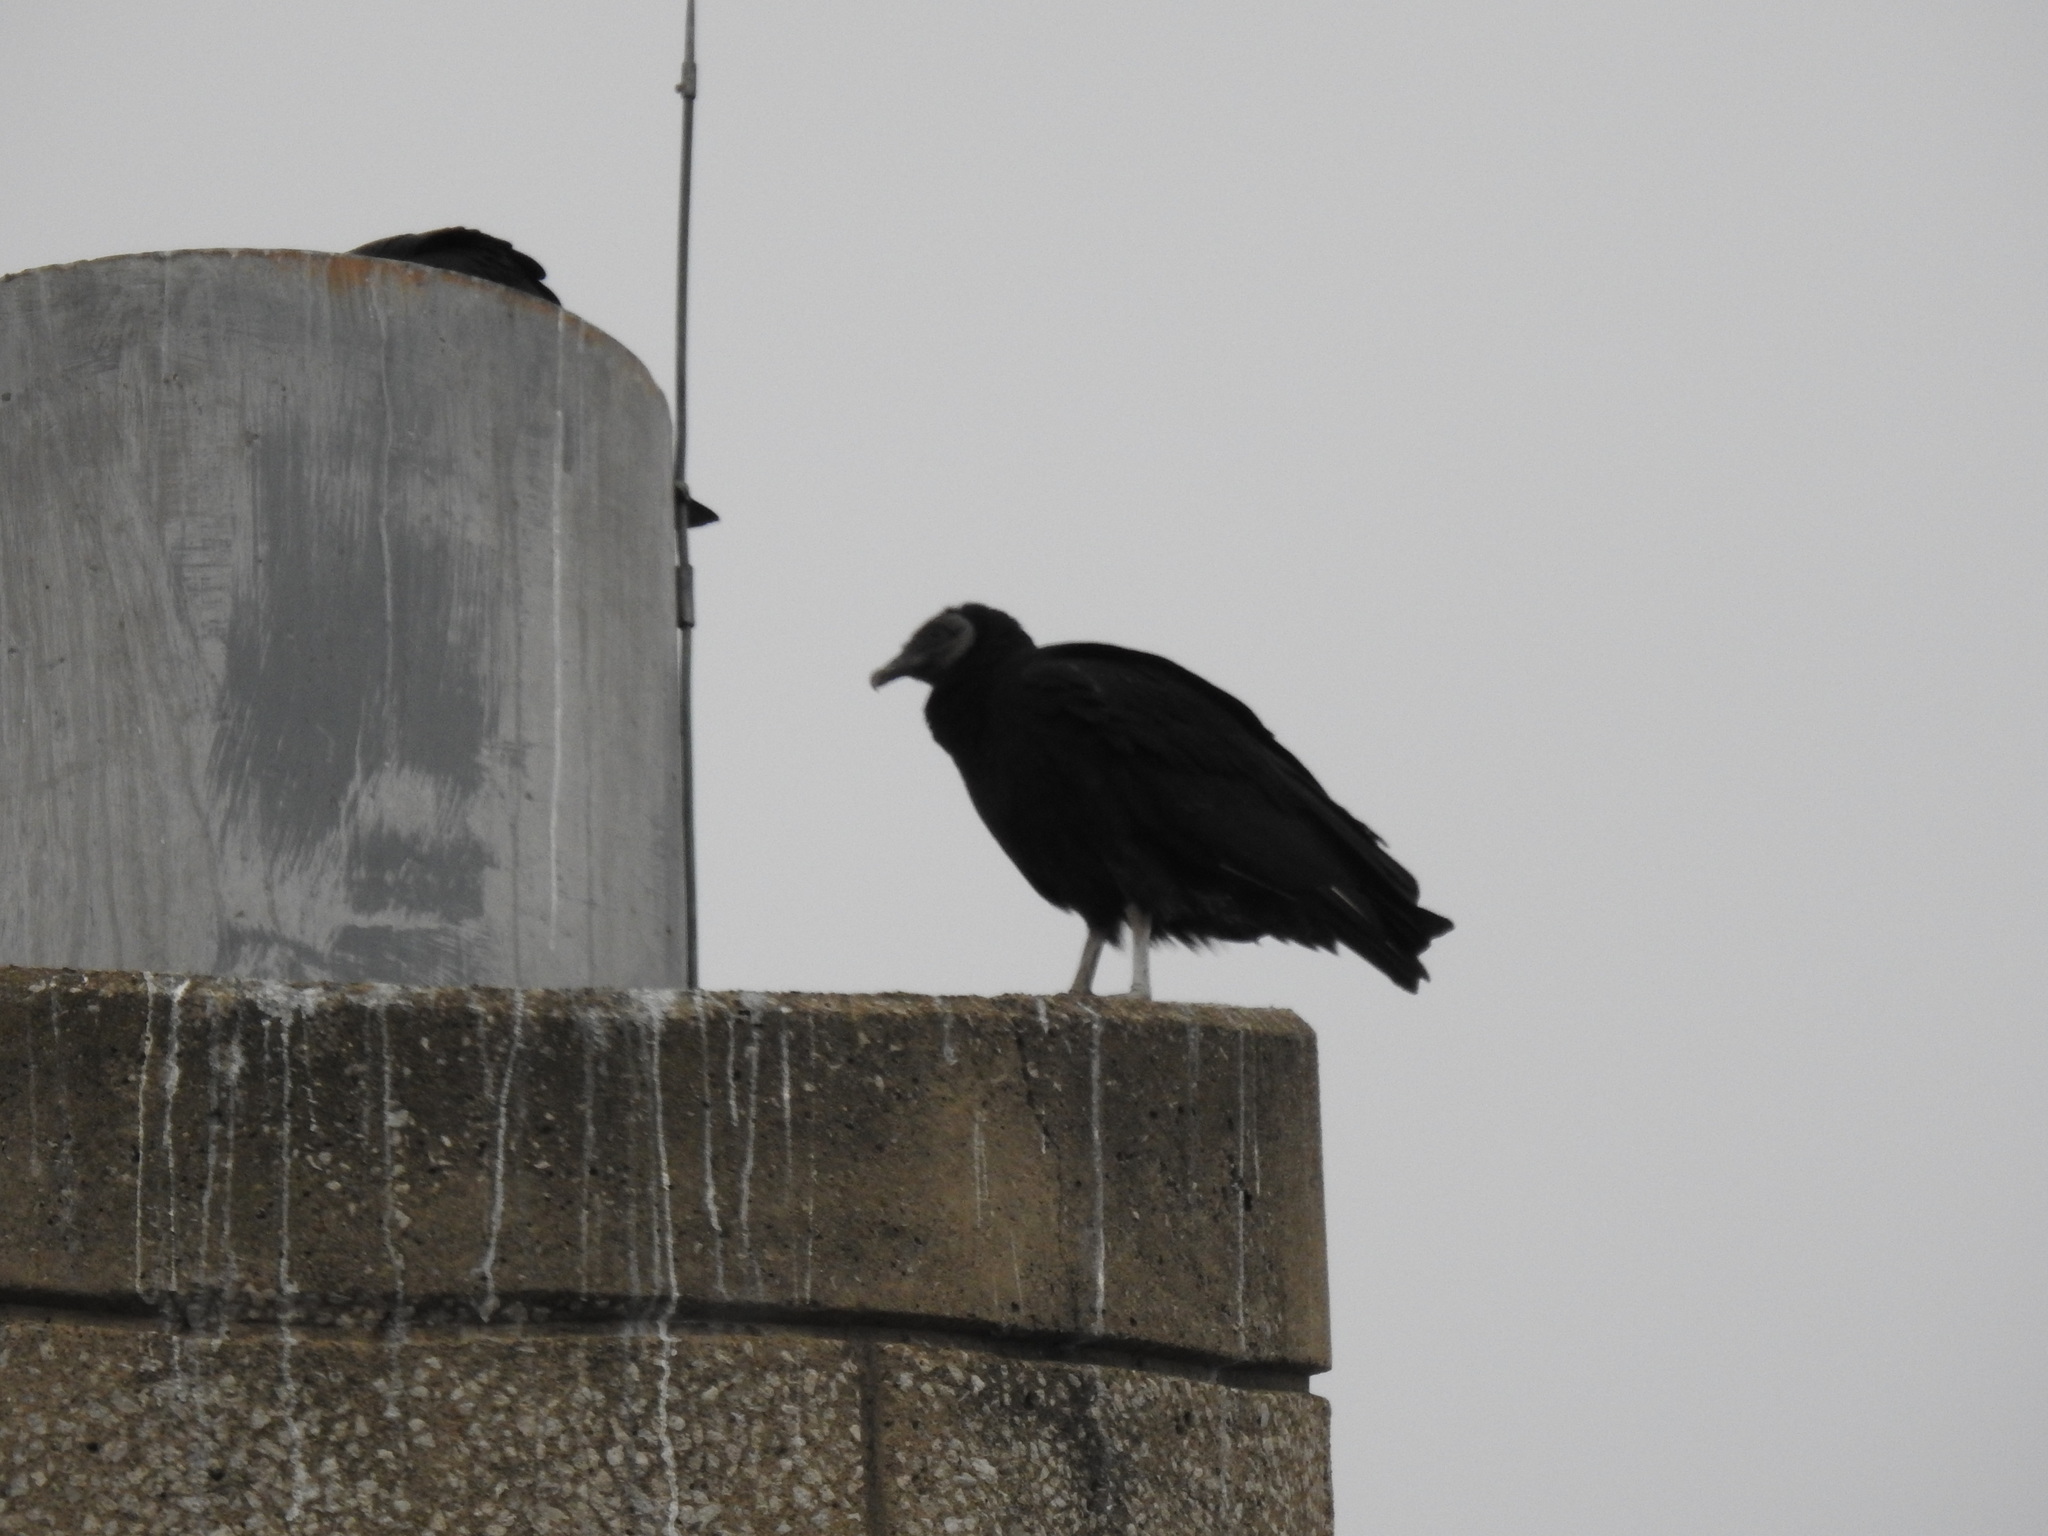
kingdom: Animalia
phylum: Chordata
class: Aves
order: Accipitriformes
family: Cathartidae
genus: Coragyps
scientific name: Coragyps atratus
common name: Black vulture
